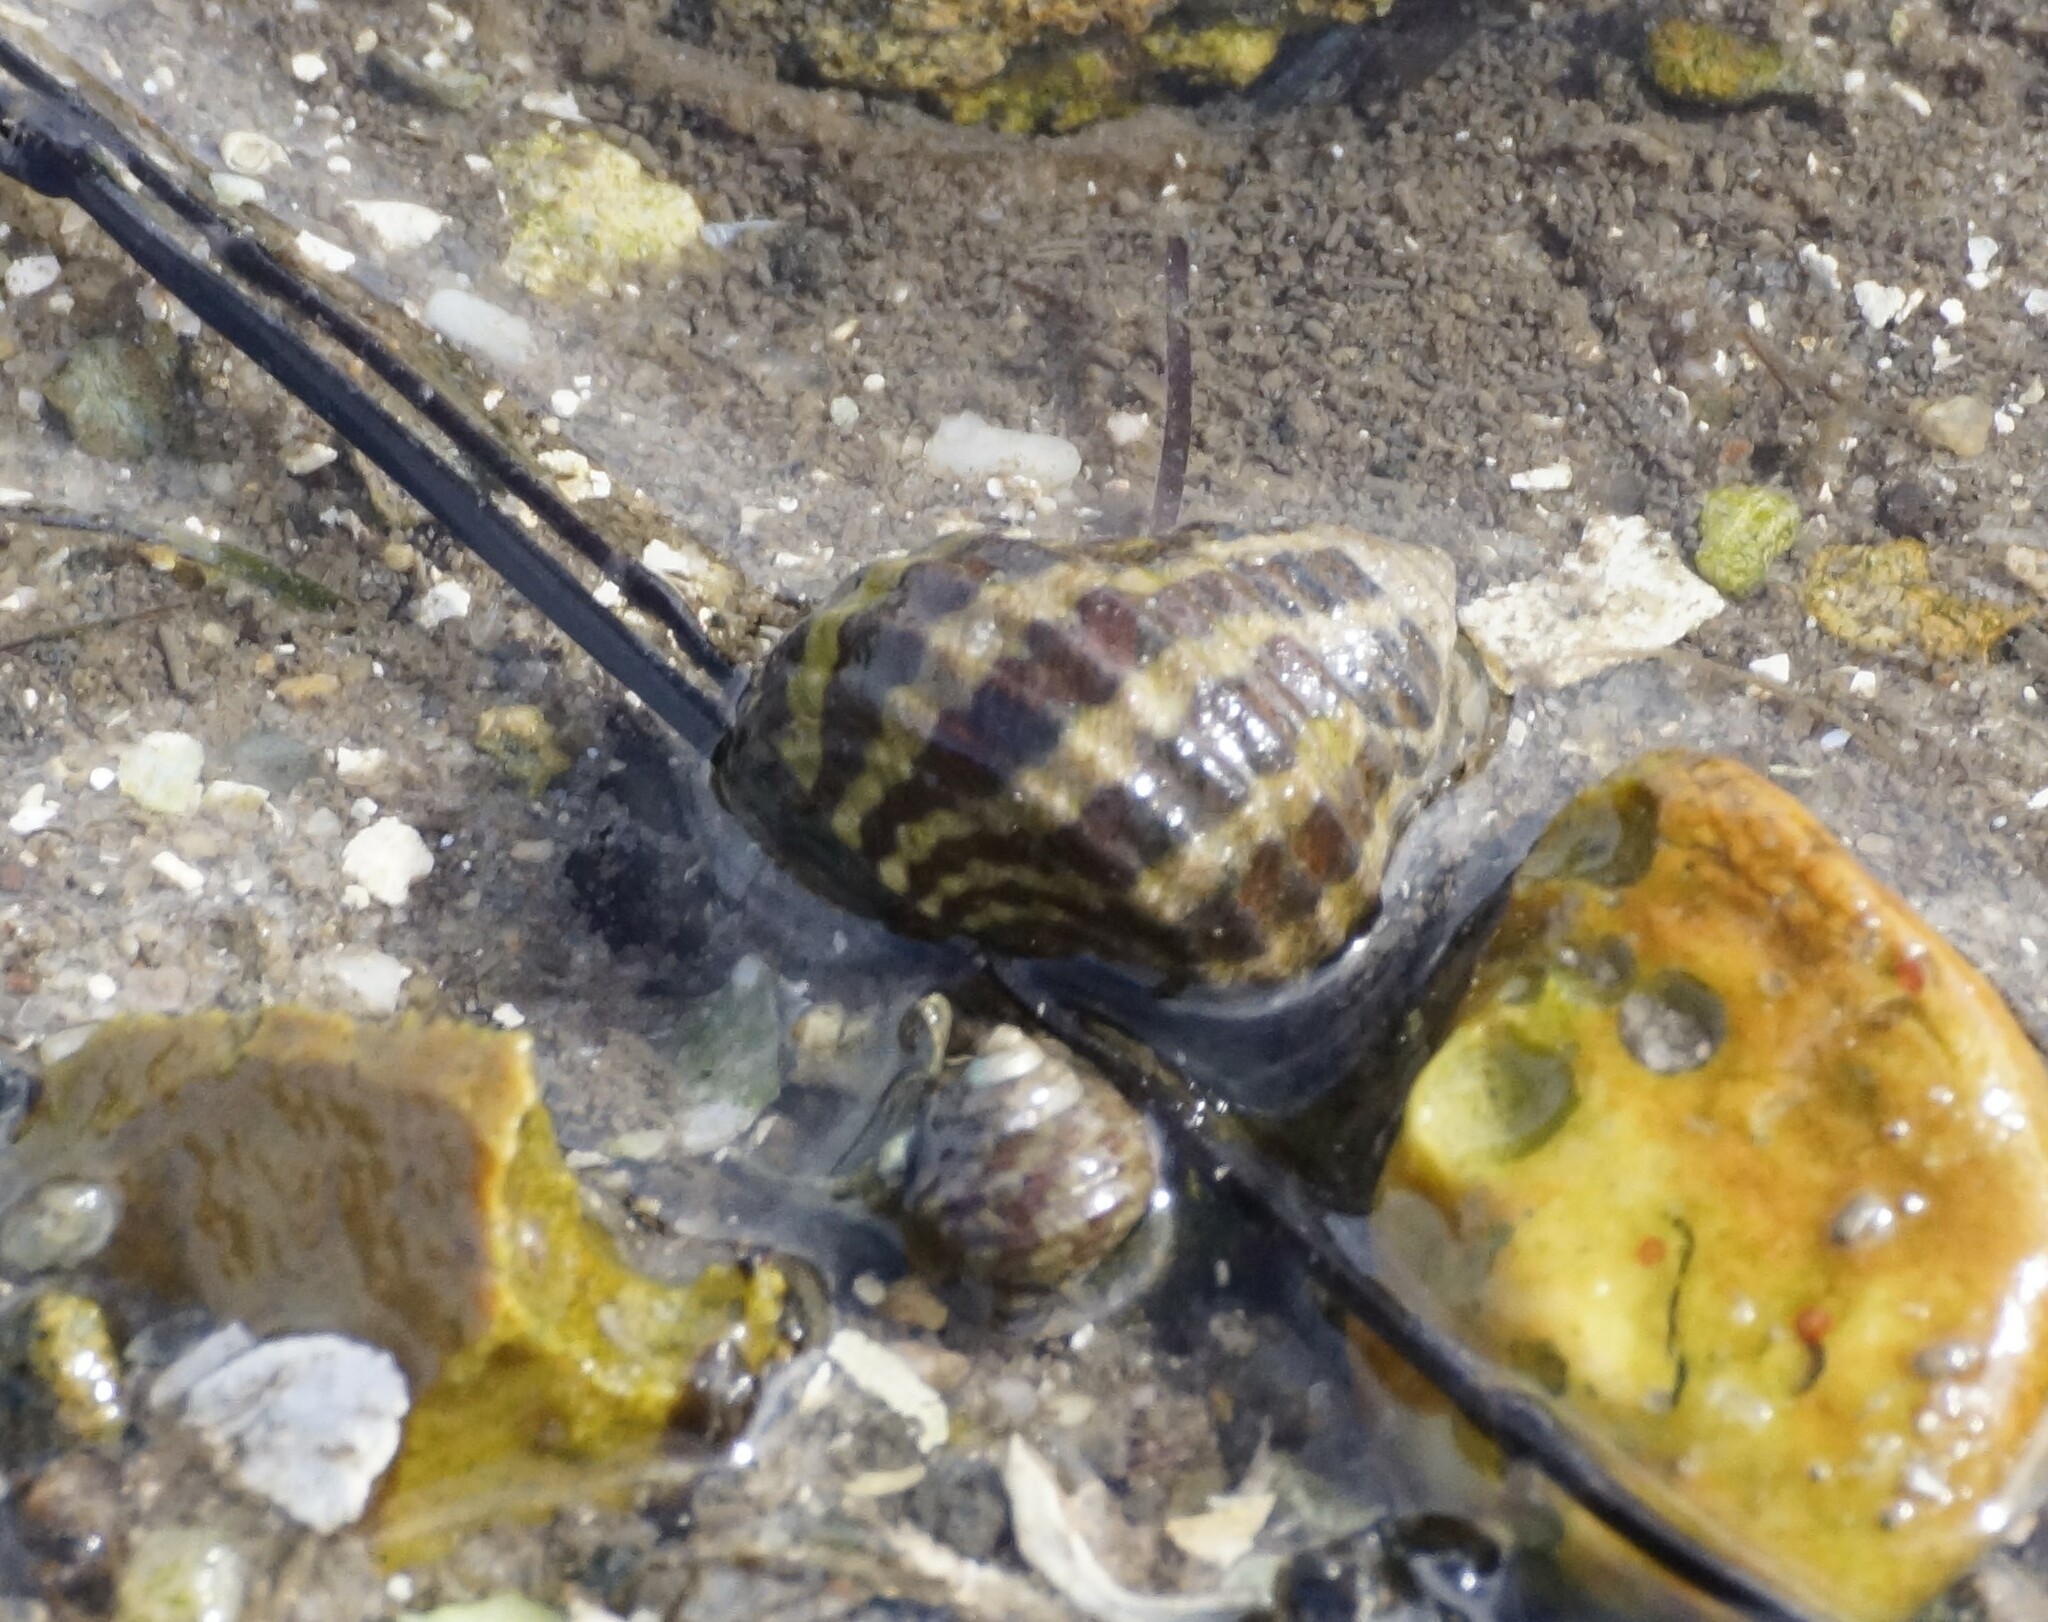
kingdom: Animalia
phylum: Mollusca
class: Gastropoda
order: Trochida
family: Trochidae
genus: Austrocochlea
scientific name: Austrocochlea porcata
